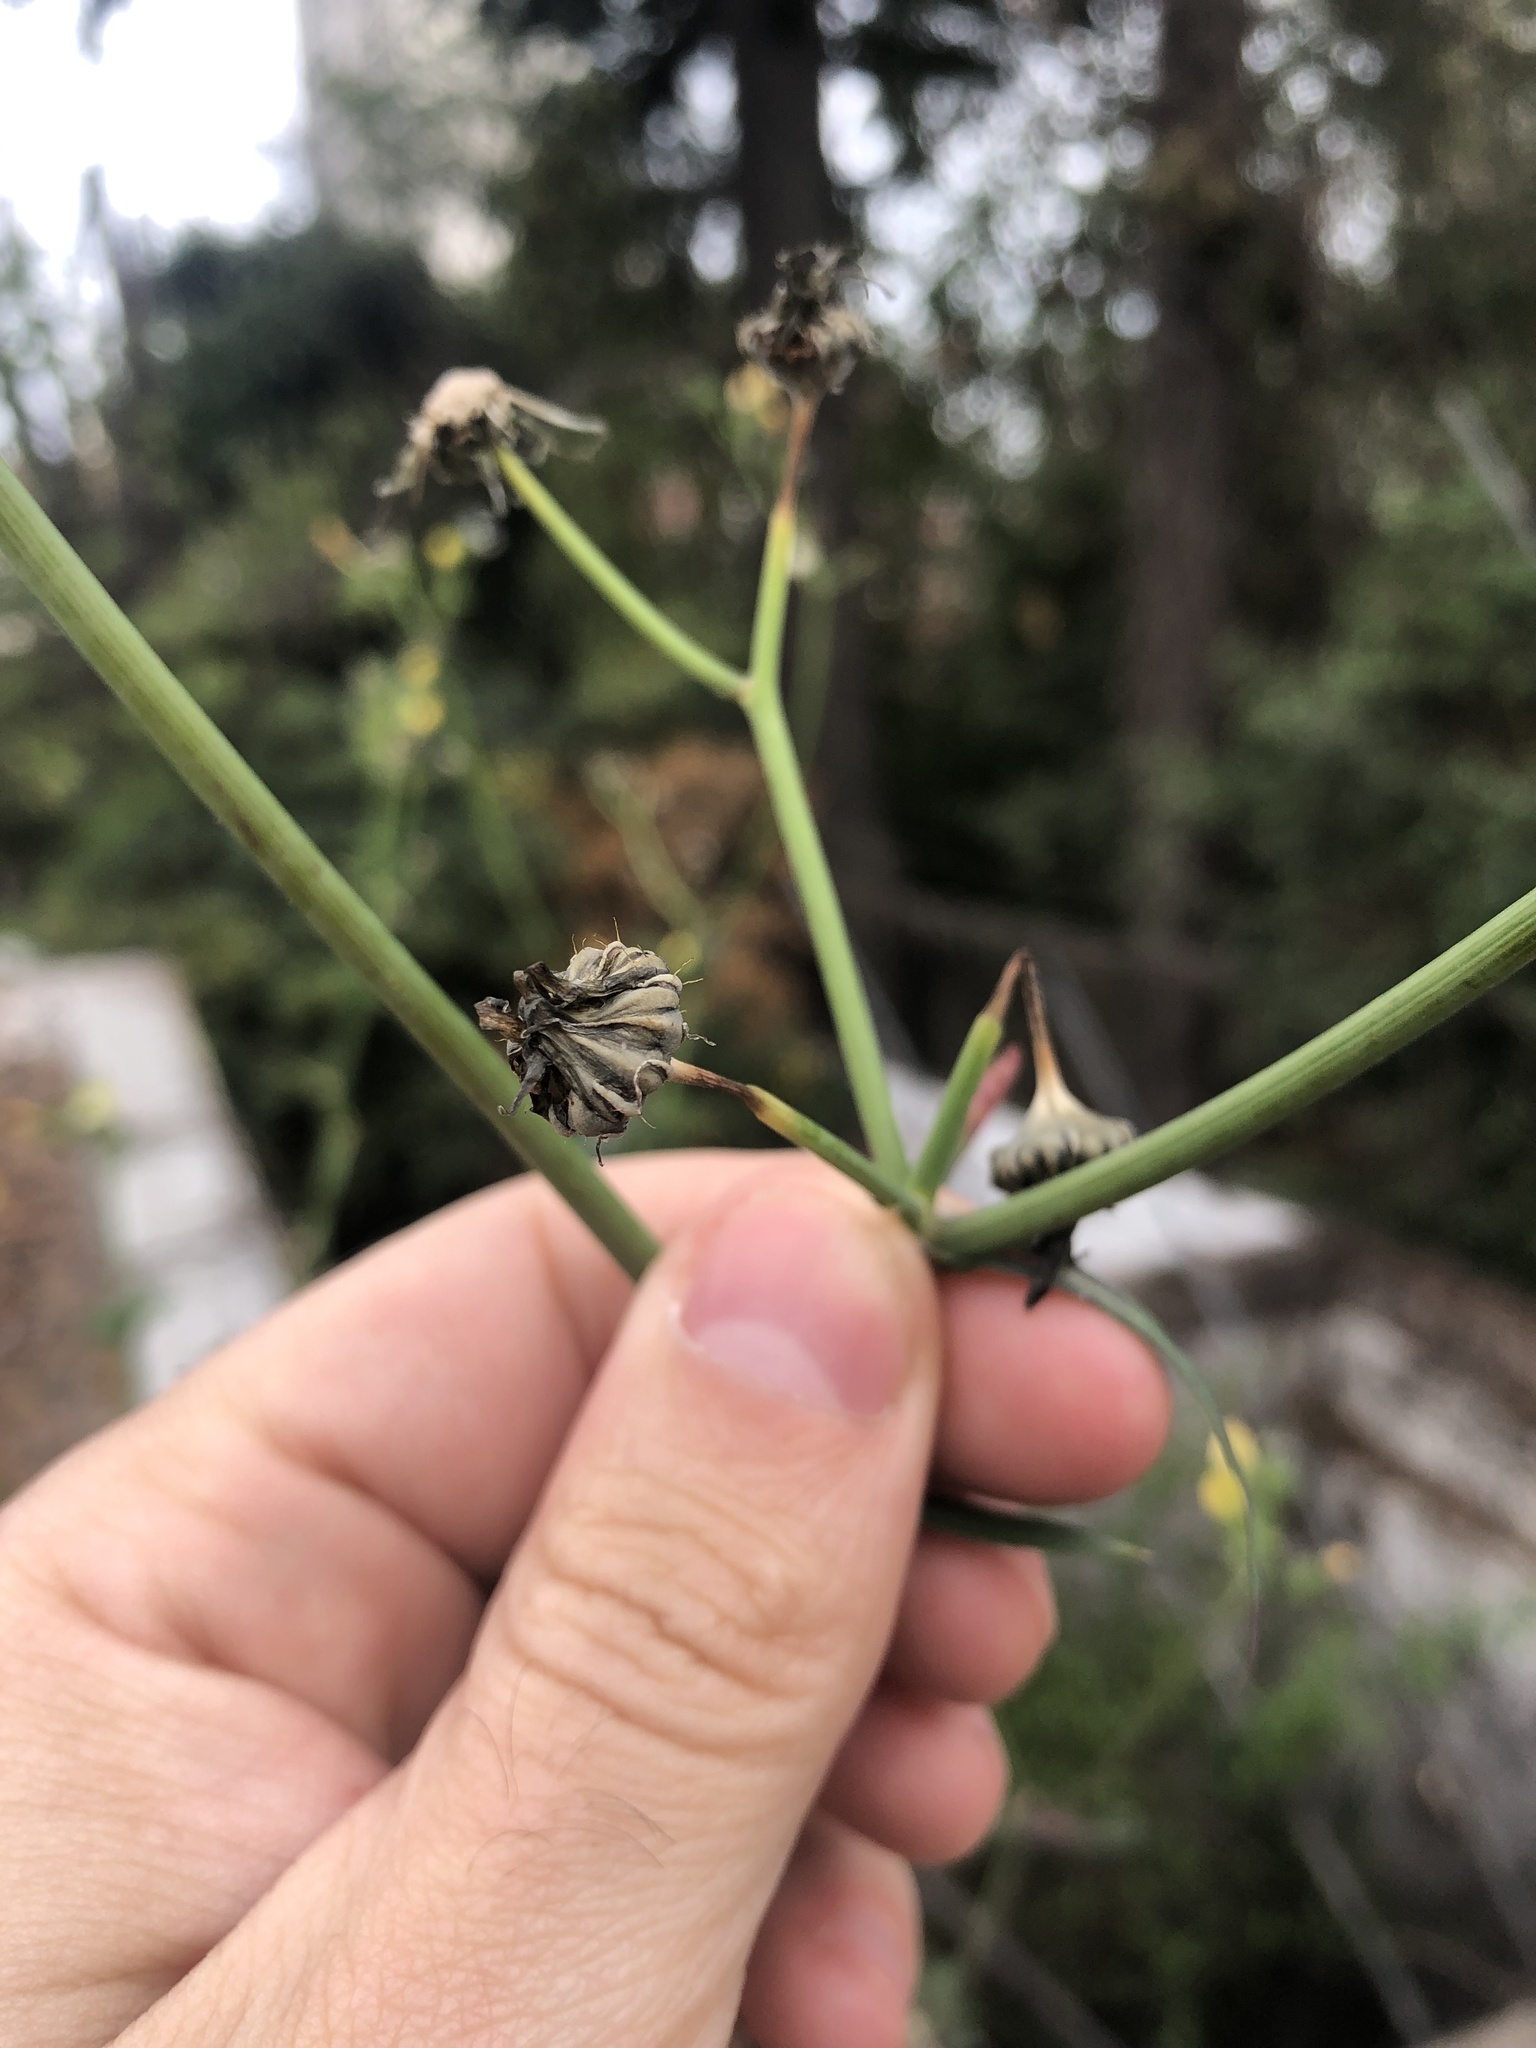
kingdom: Plantae
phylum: Tracheophyta
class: Magnoliopsida
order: Asterales
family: Asteraceae
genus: Sonchus
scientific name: Sonchus oleraceus
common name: Common sowthistle
